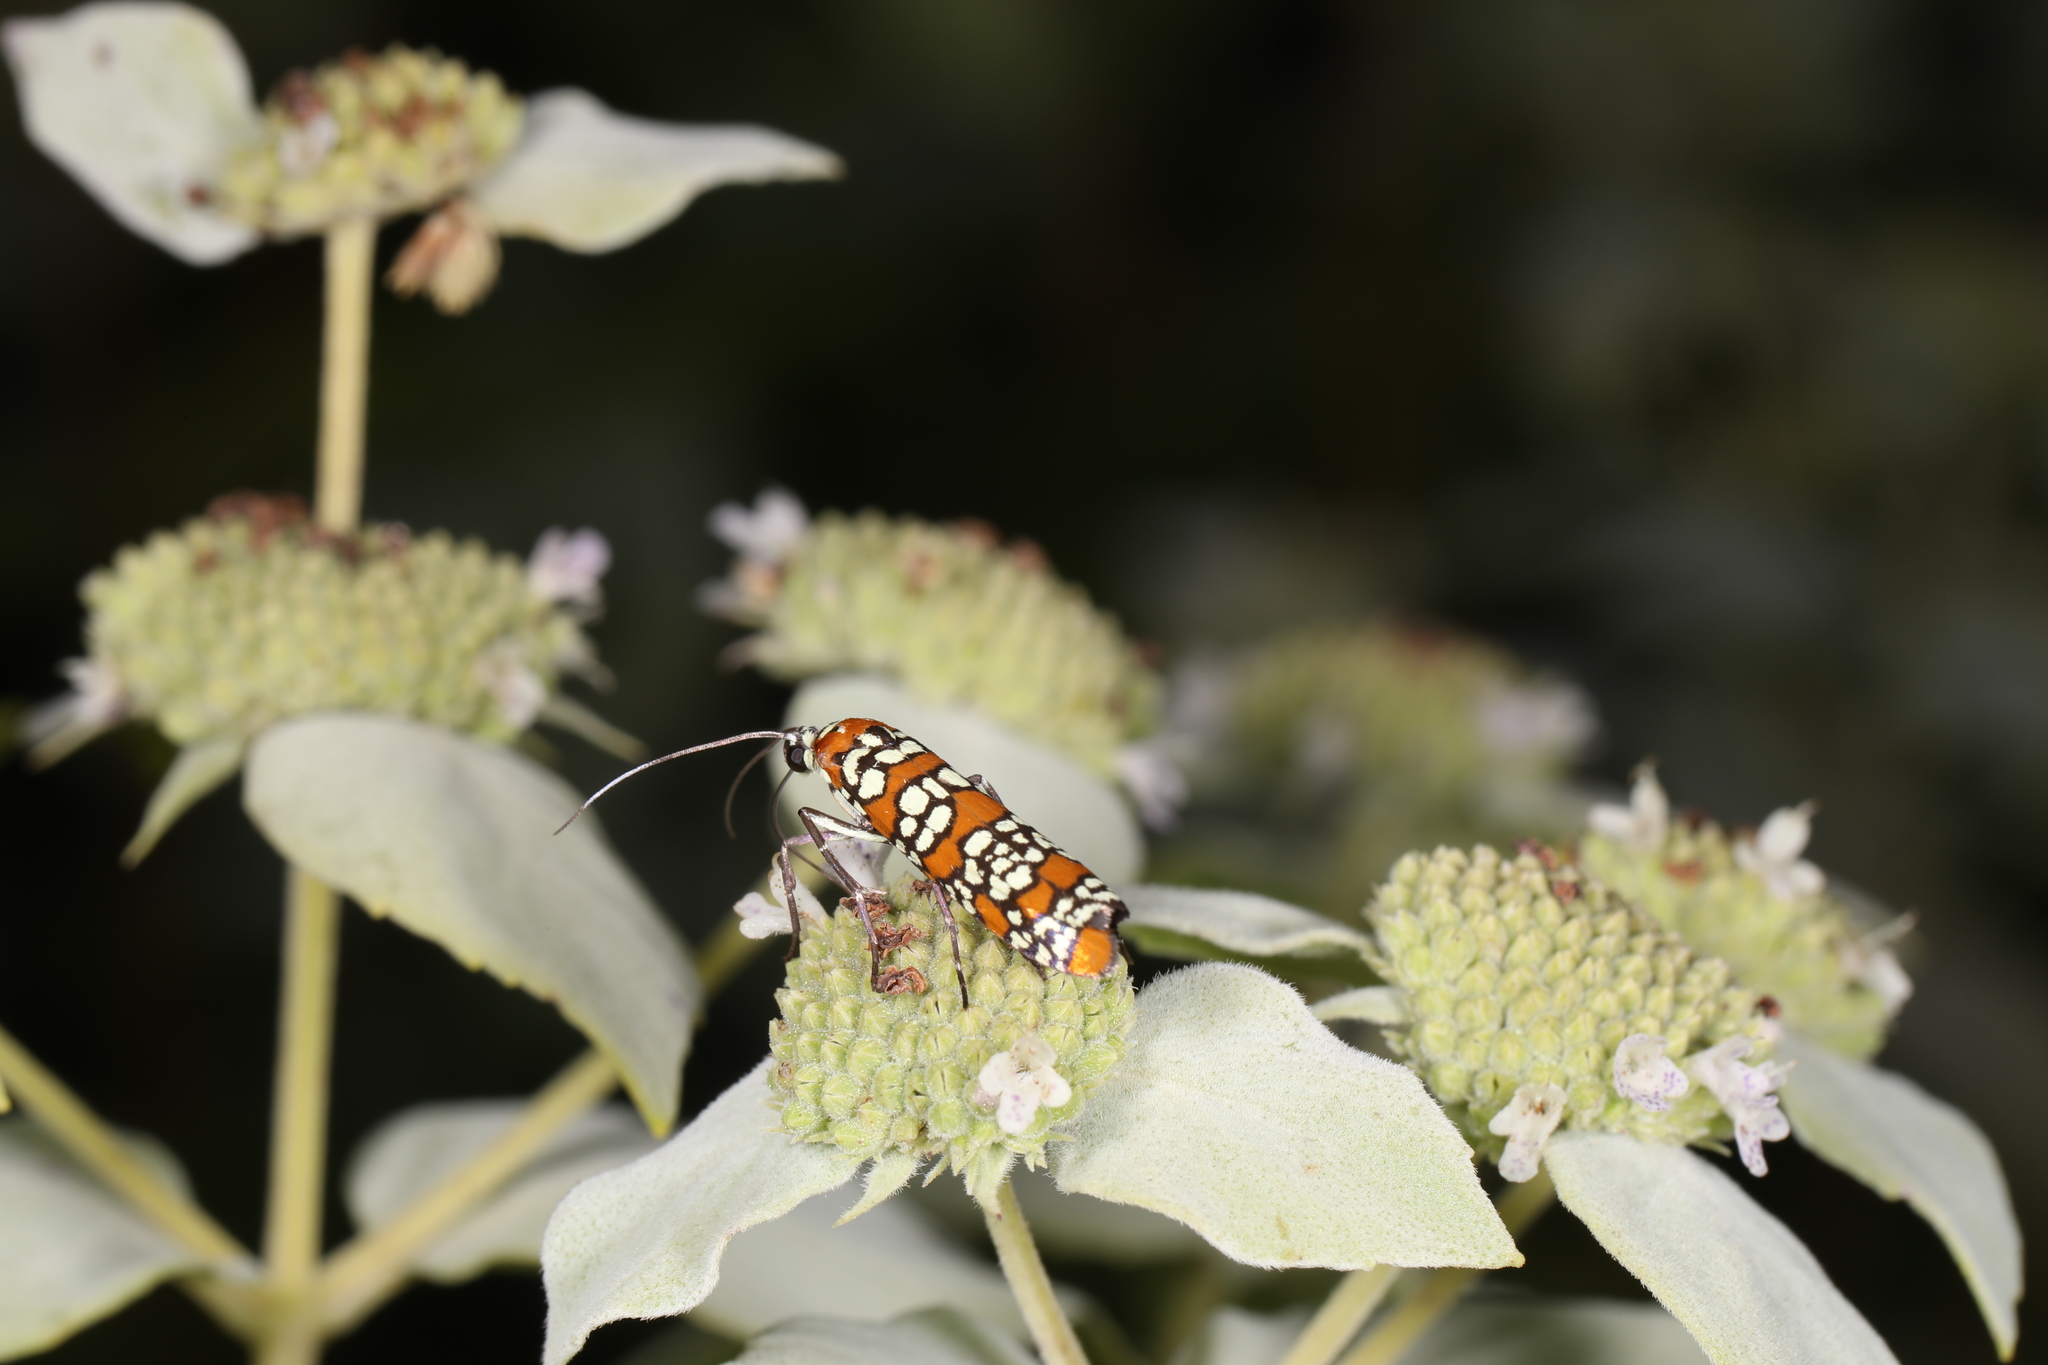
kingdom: Animalia
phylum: Arthropoda
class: Insecta
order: Lepidoptera
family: Attevidae
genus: Atteva
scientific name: Atteva punctella
